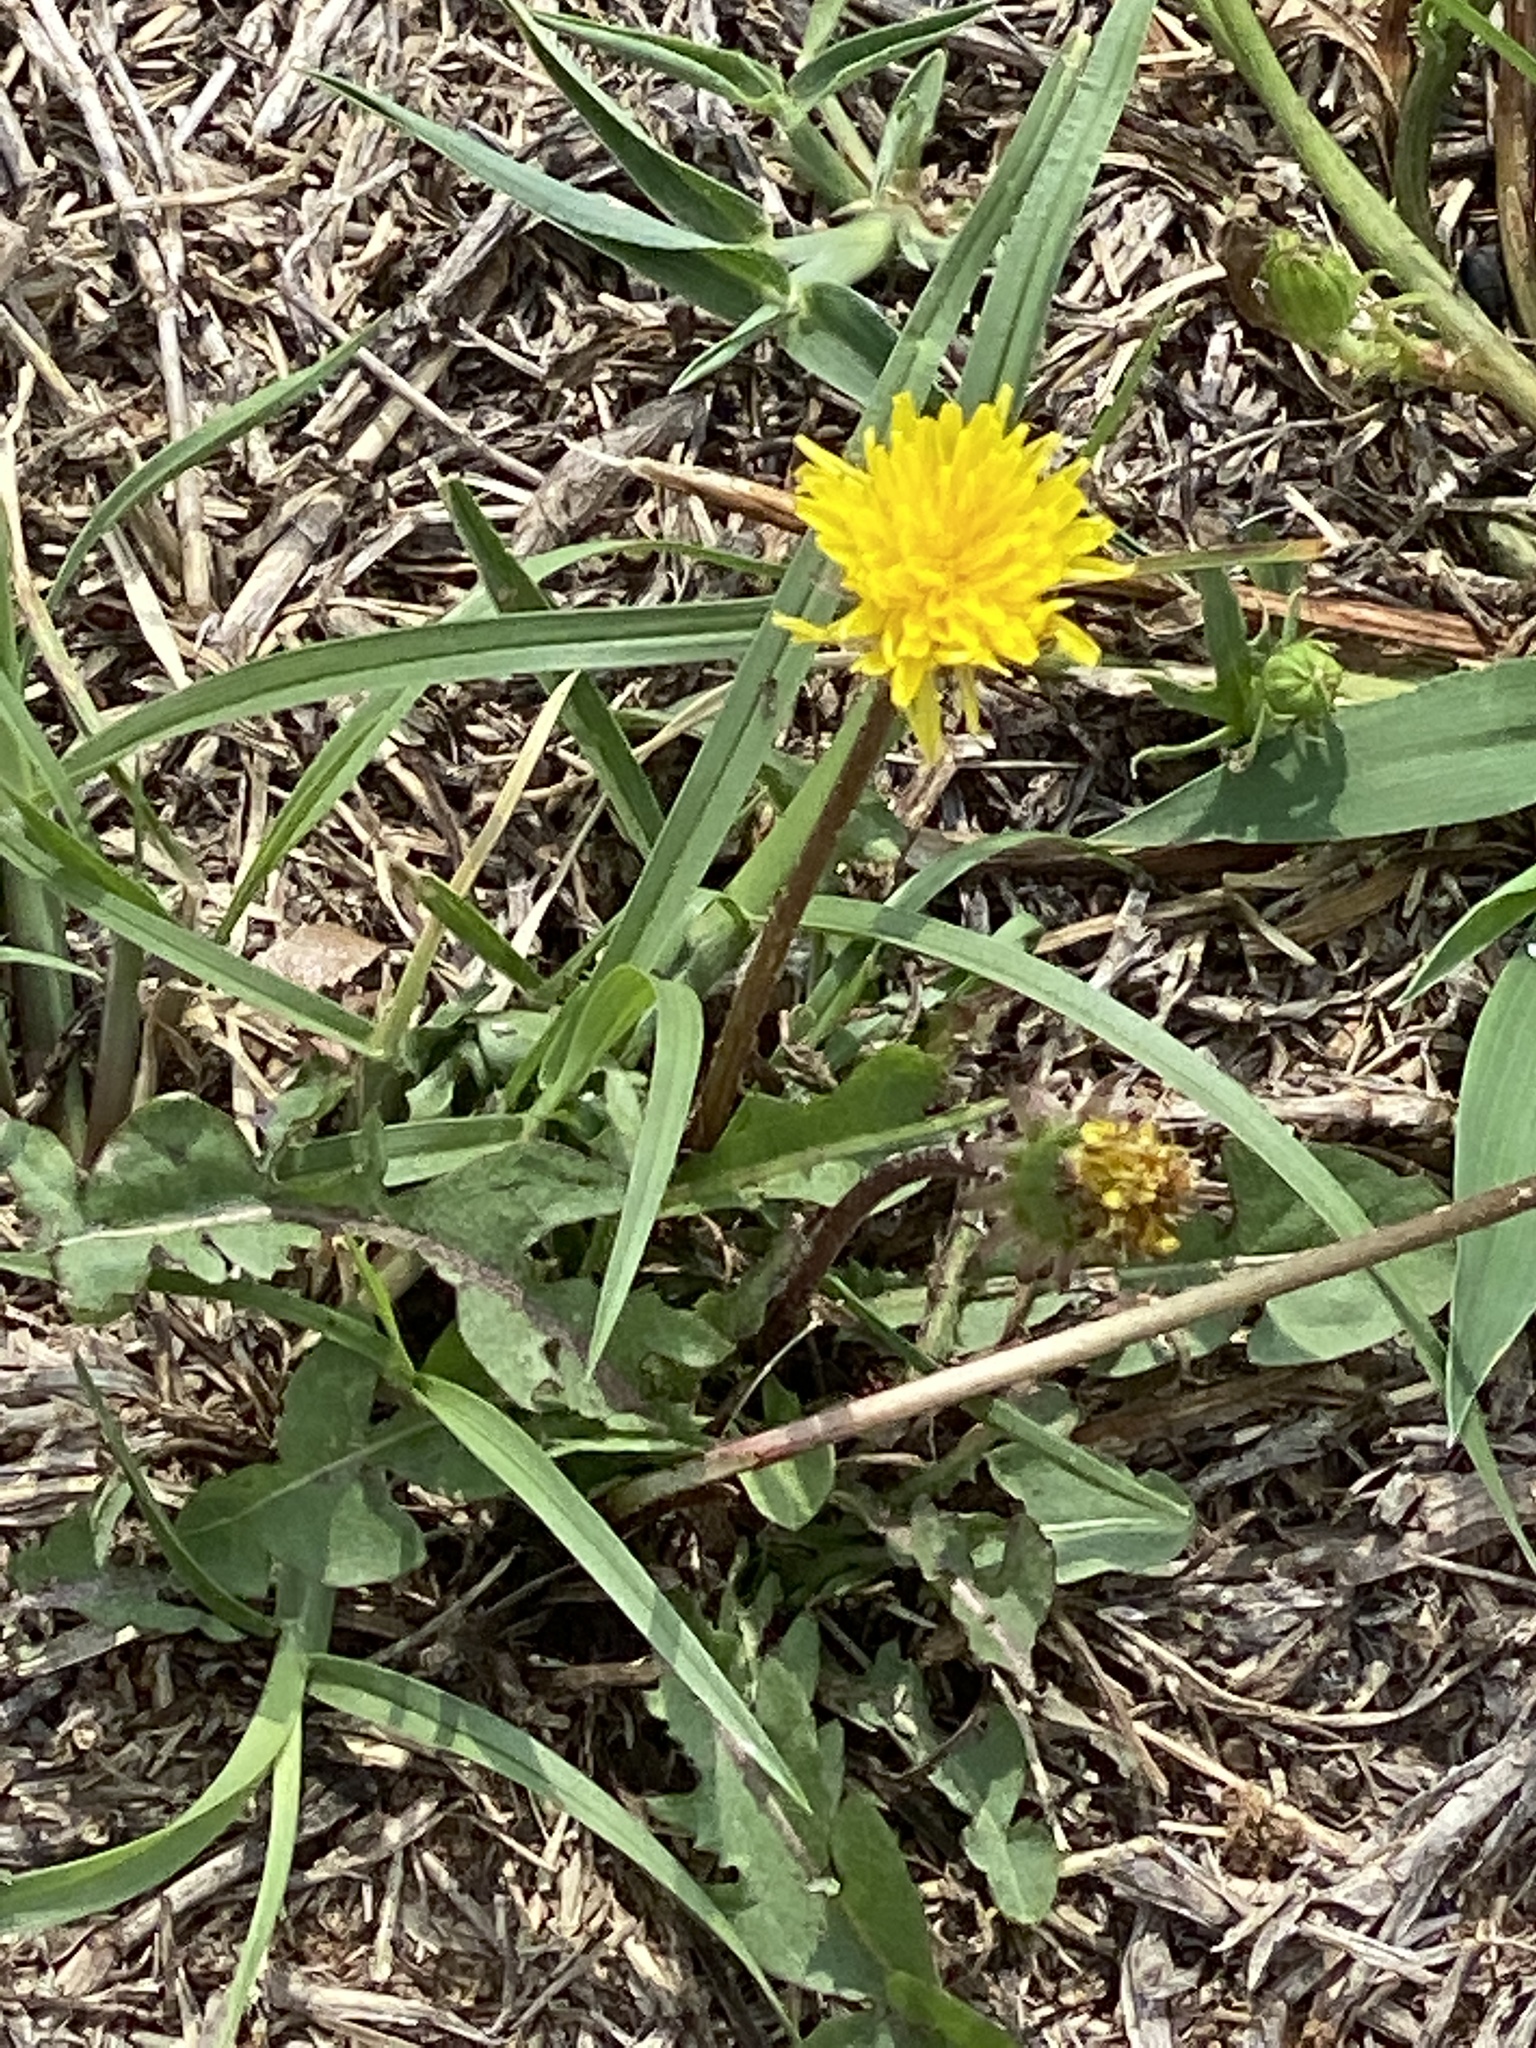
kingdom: Plantae
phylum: Tracheophyta
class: Magnoliopsida
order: Asterales
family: Asteraceae
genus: Taraxacum
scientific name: Taraxacum officinale
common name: Common dandelion
